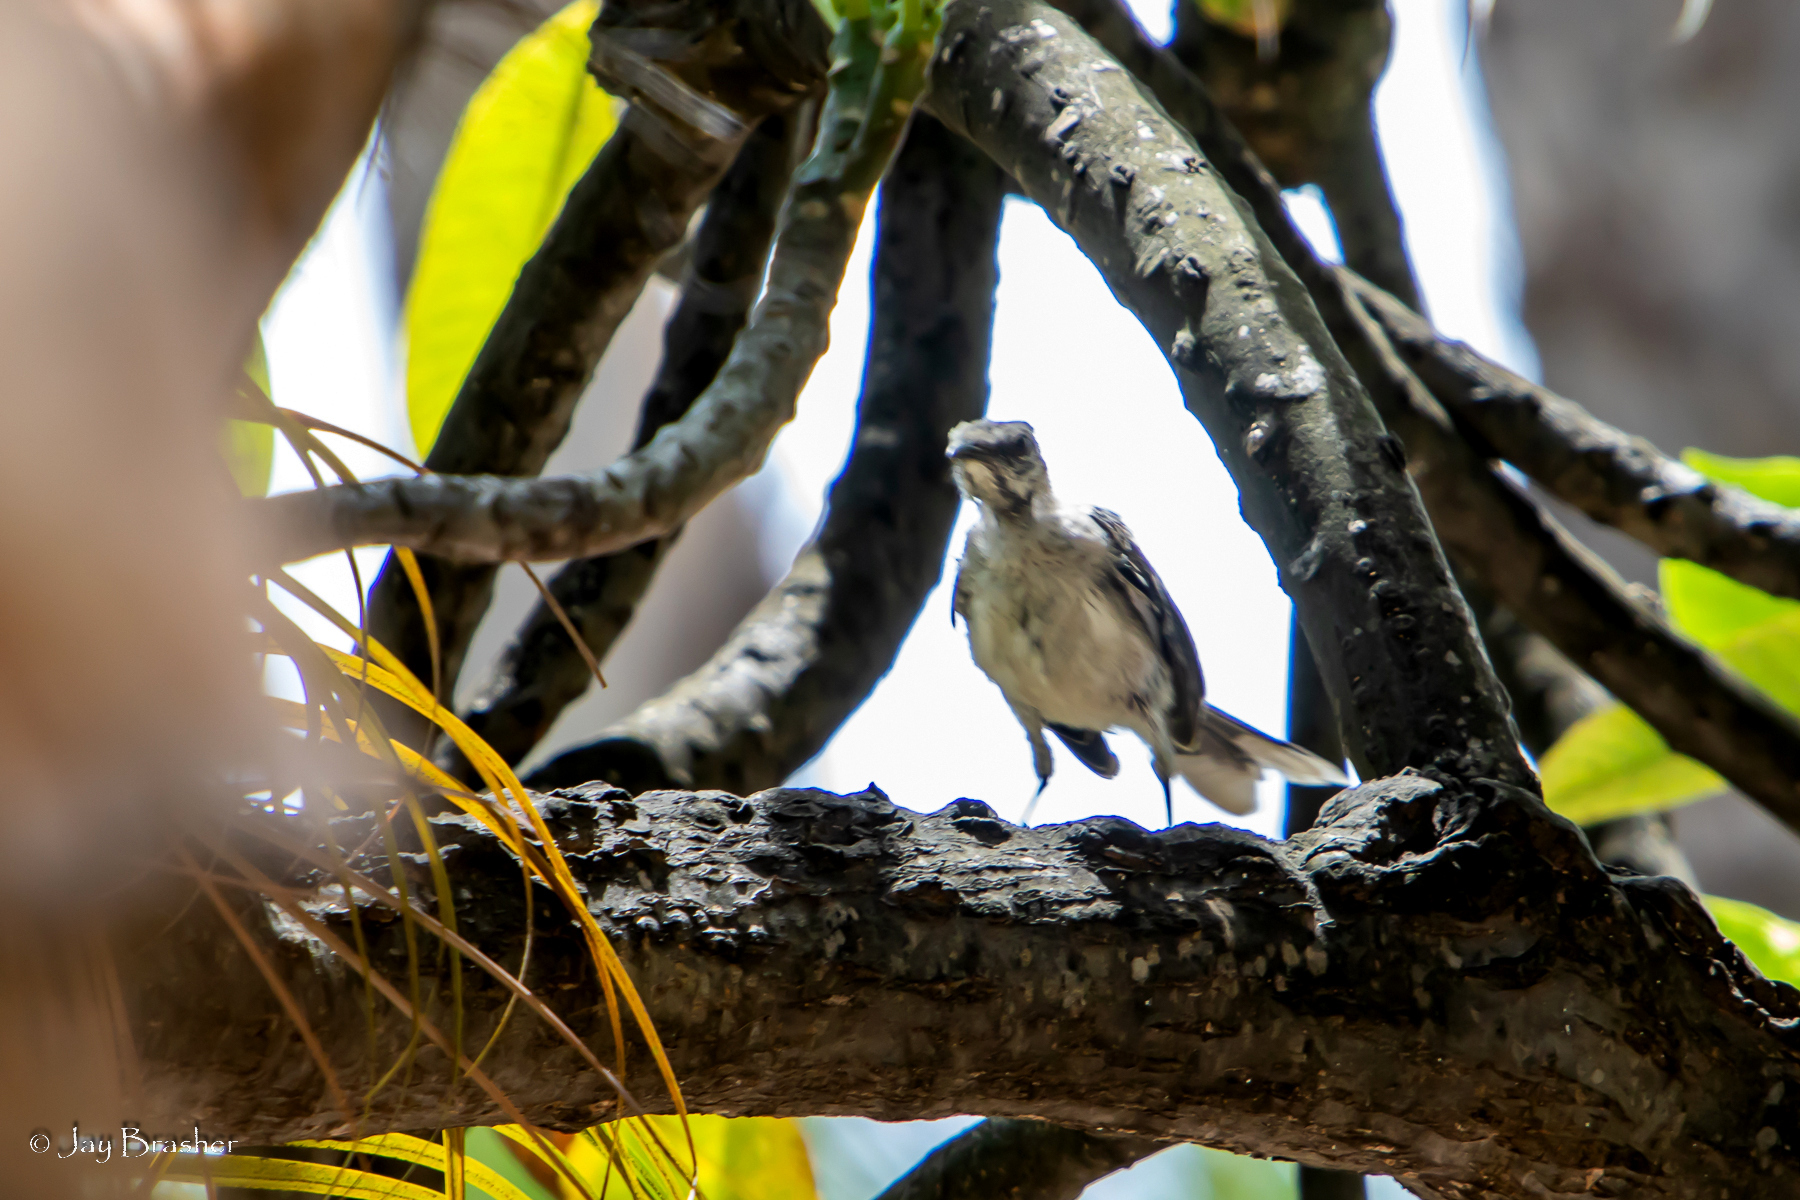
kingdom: Animalia
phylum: Chordata
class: Aves
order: Passeriformes
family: Mimidae
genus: Mimus
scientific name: Mimus gilvus
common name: Tropical mockingbird
